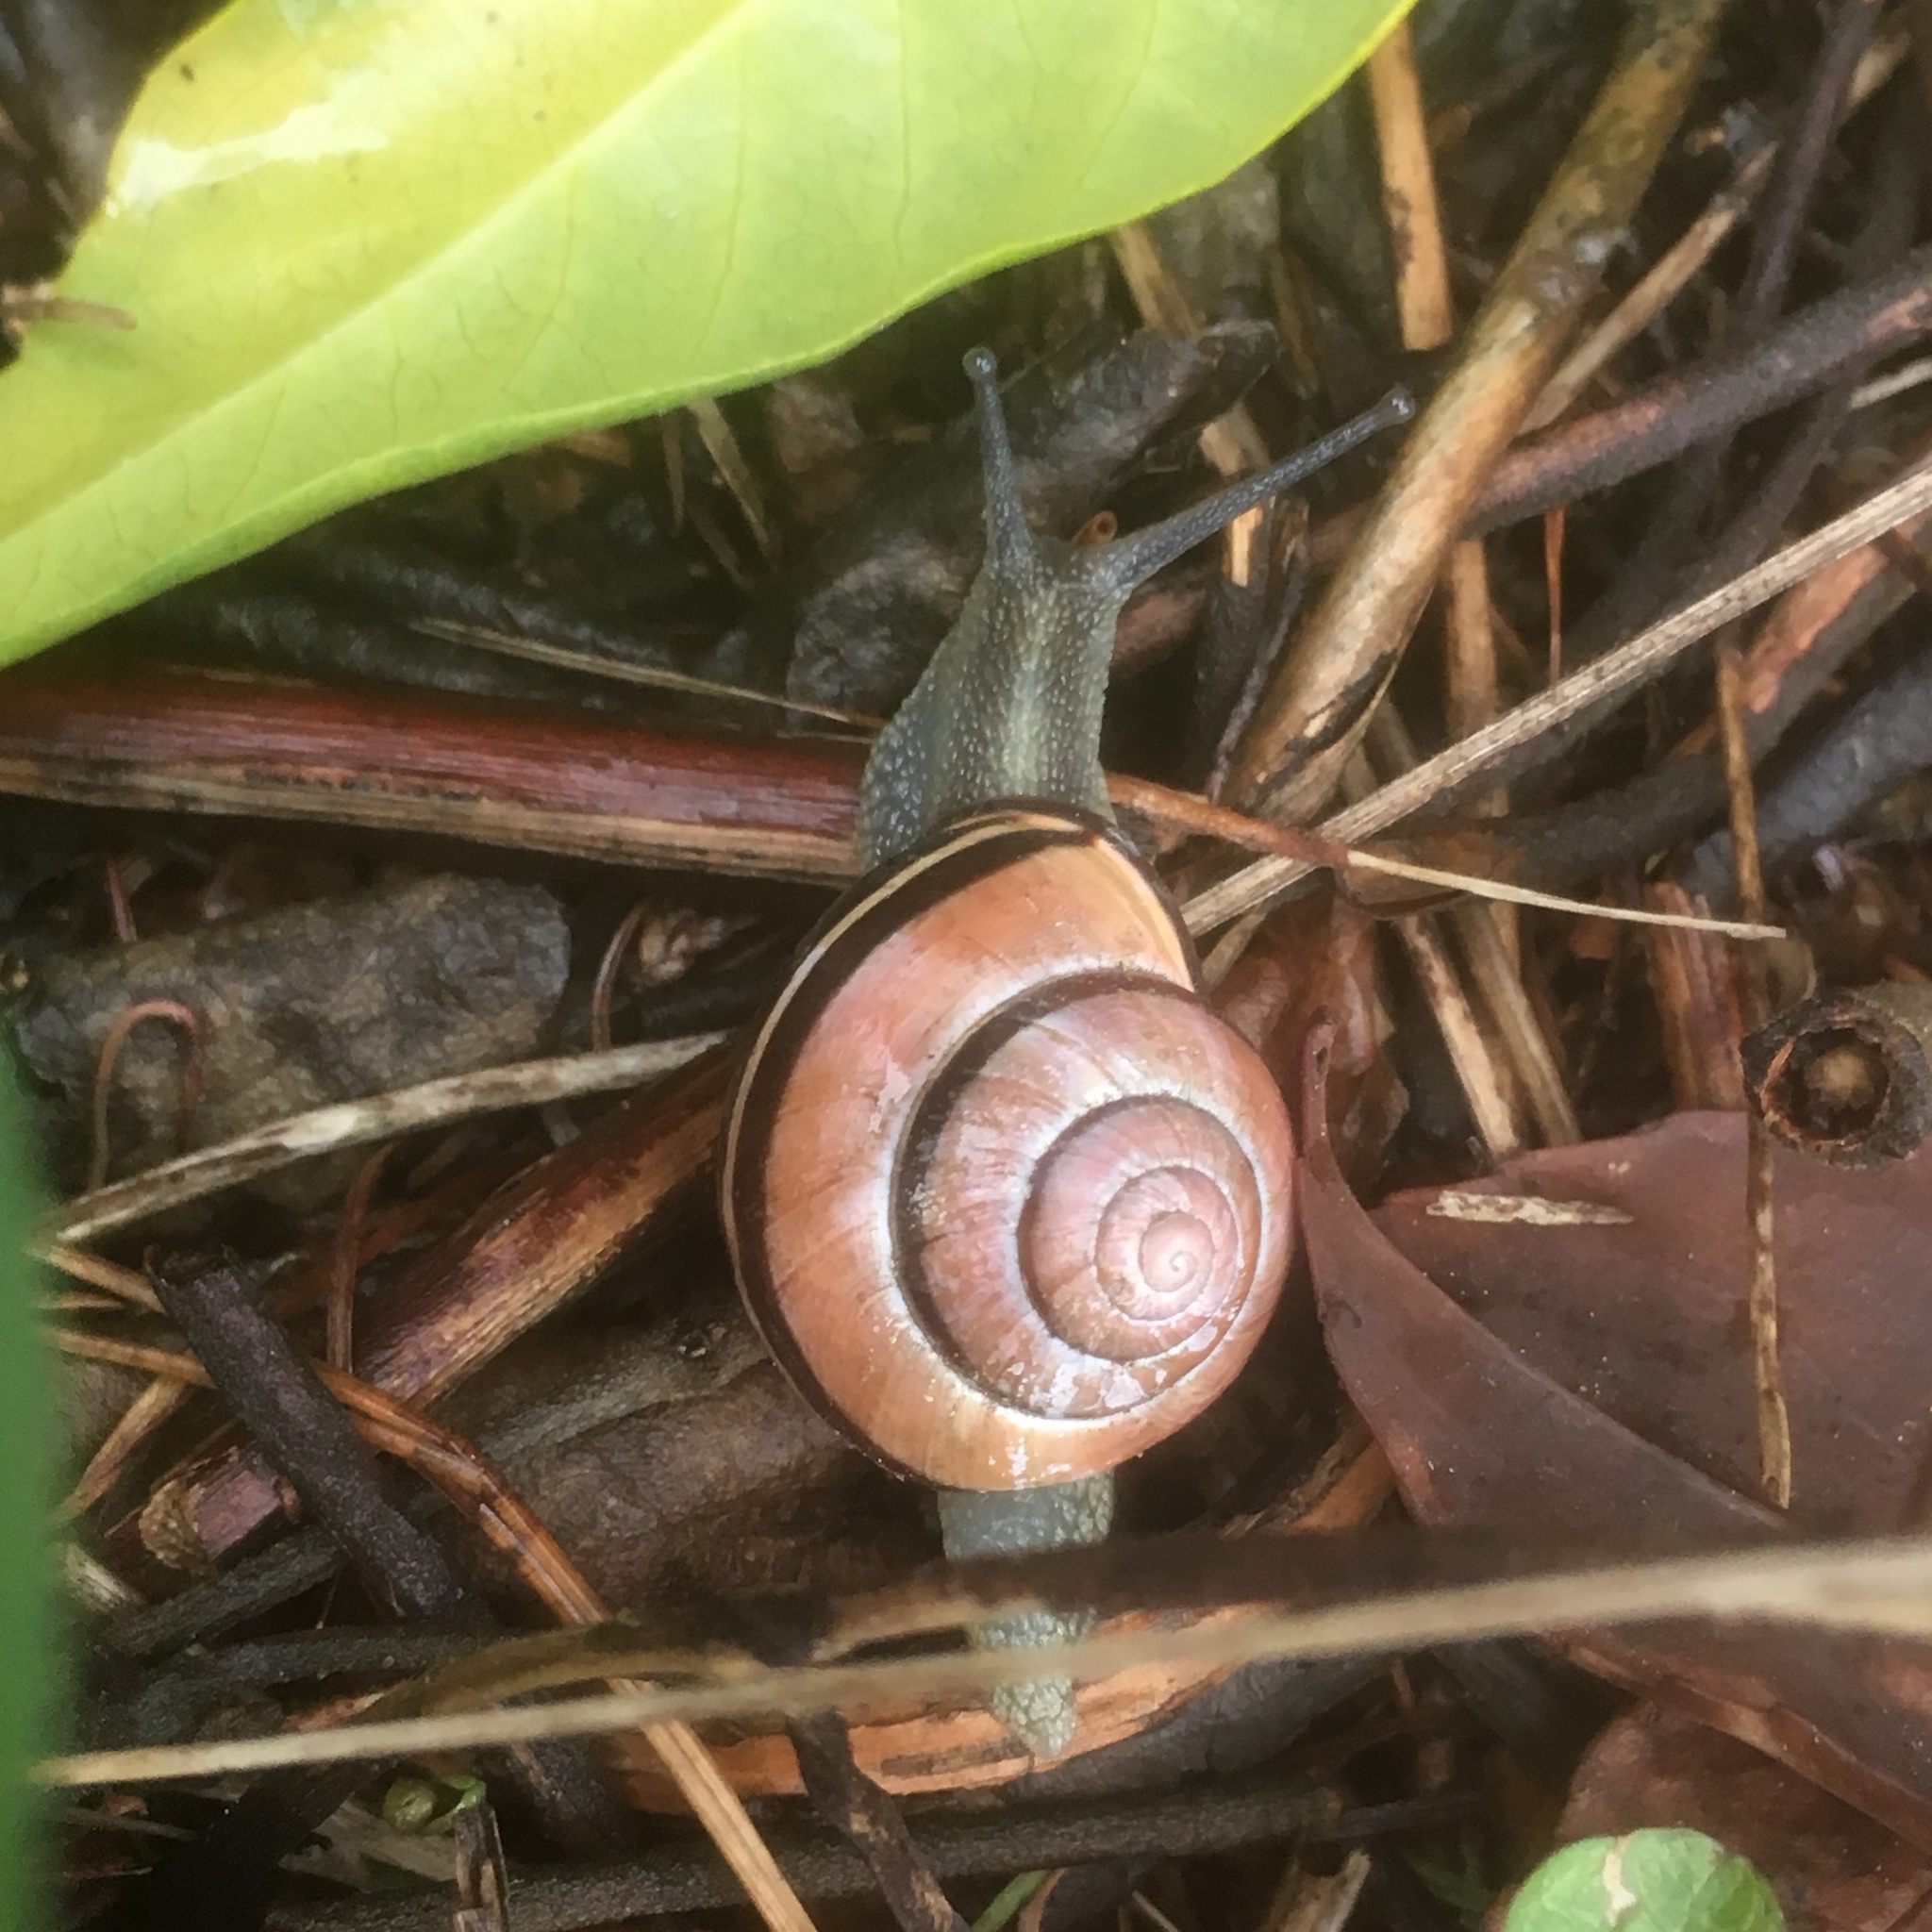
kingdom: Animalia
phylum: Mollusca
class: Gastropoda
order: Stylommatophora
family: Helicidae
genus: Cepaea
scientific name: Cepaea nemoralis
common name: Grovesnail
